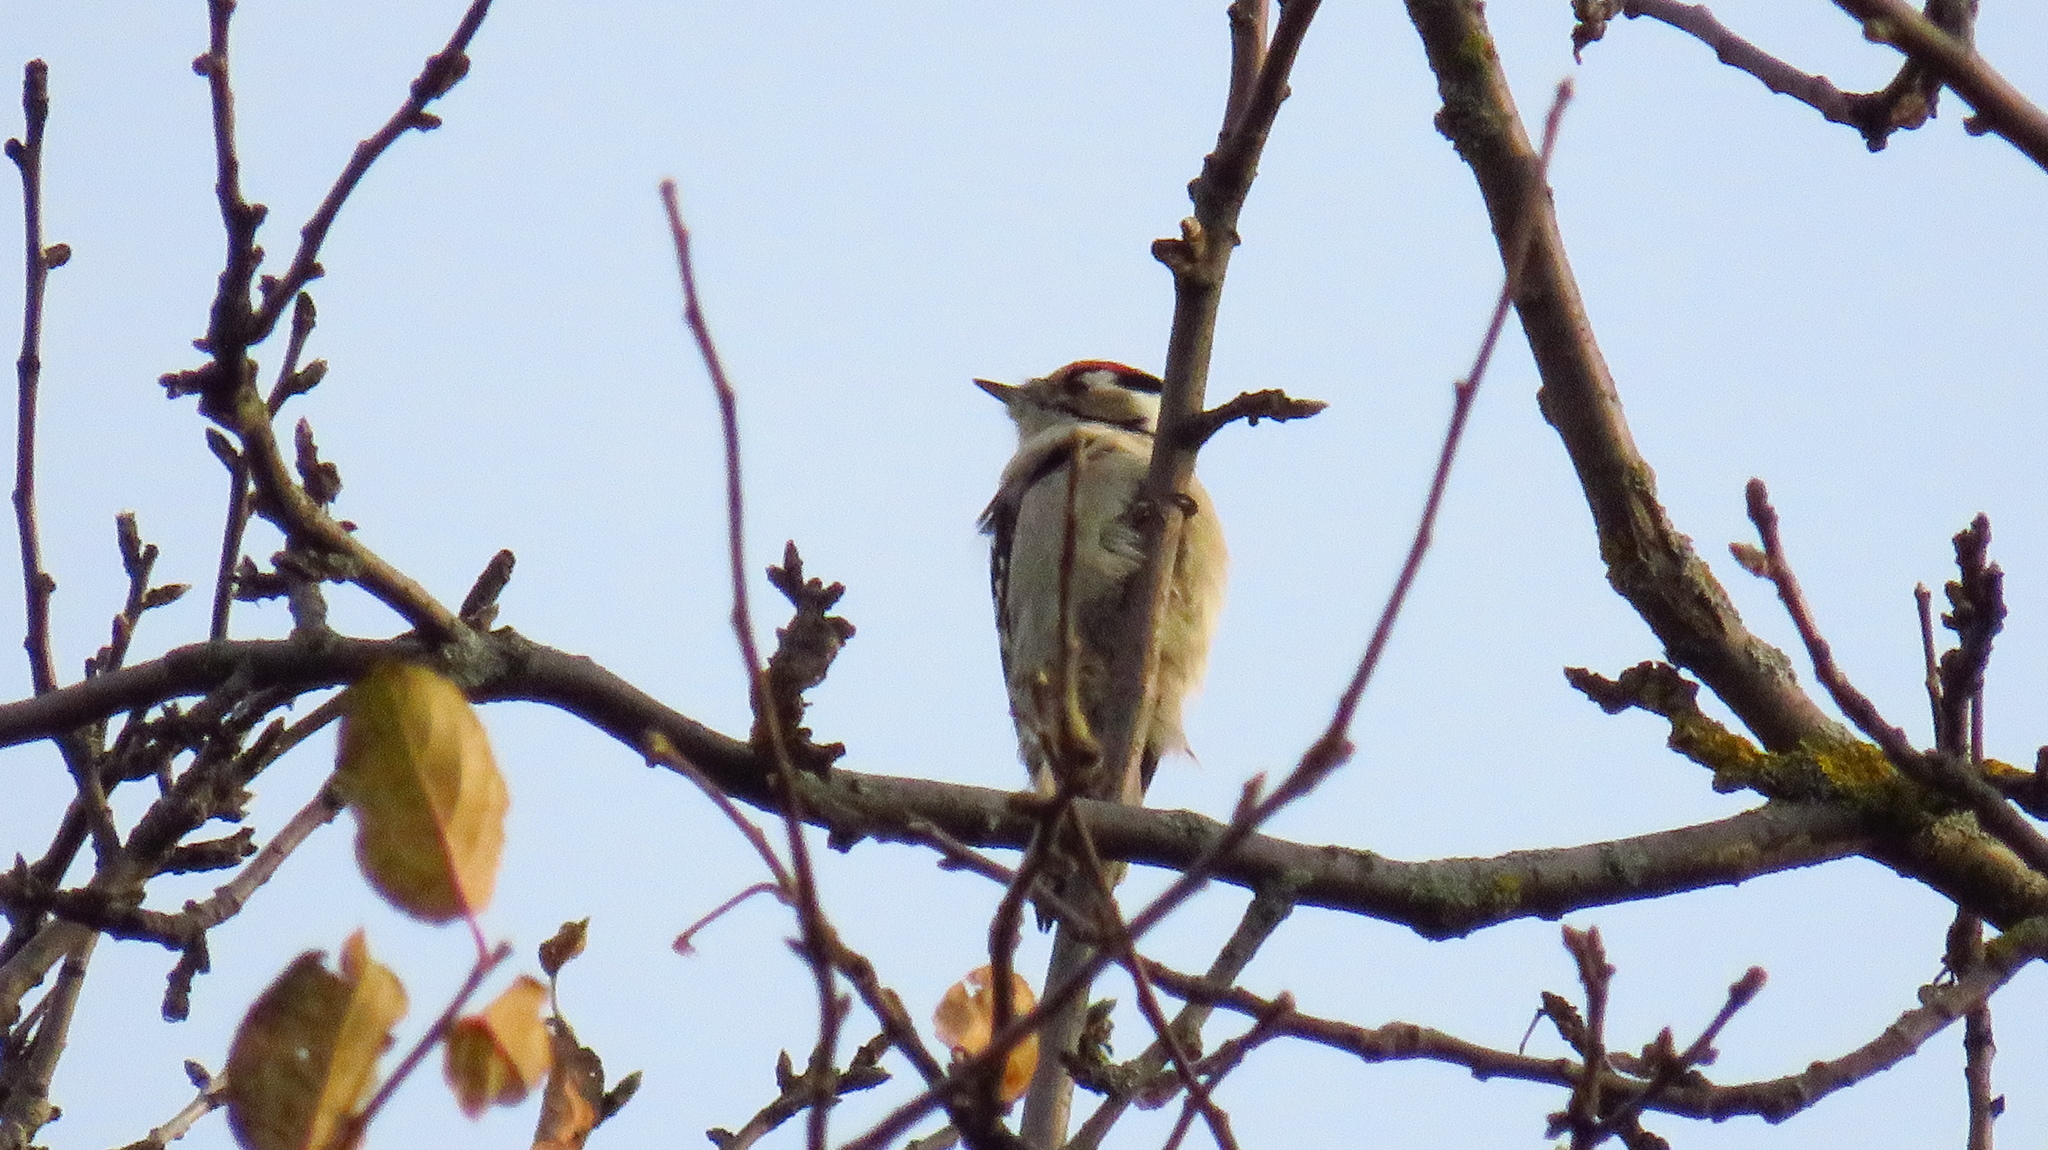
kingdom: Animalia
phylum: Chordata
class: Aves
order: Piciformes
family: Picidae
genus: Dryobates
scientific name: Dryobates minor
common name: Lesser spotted woodpecker
